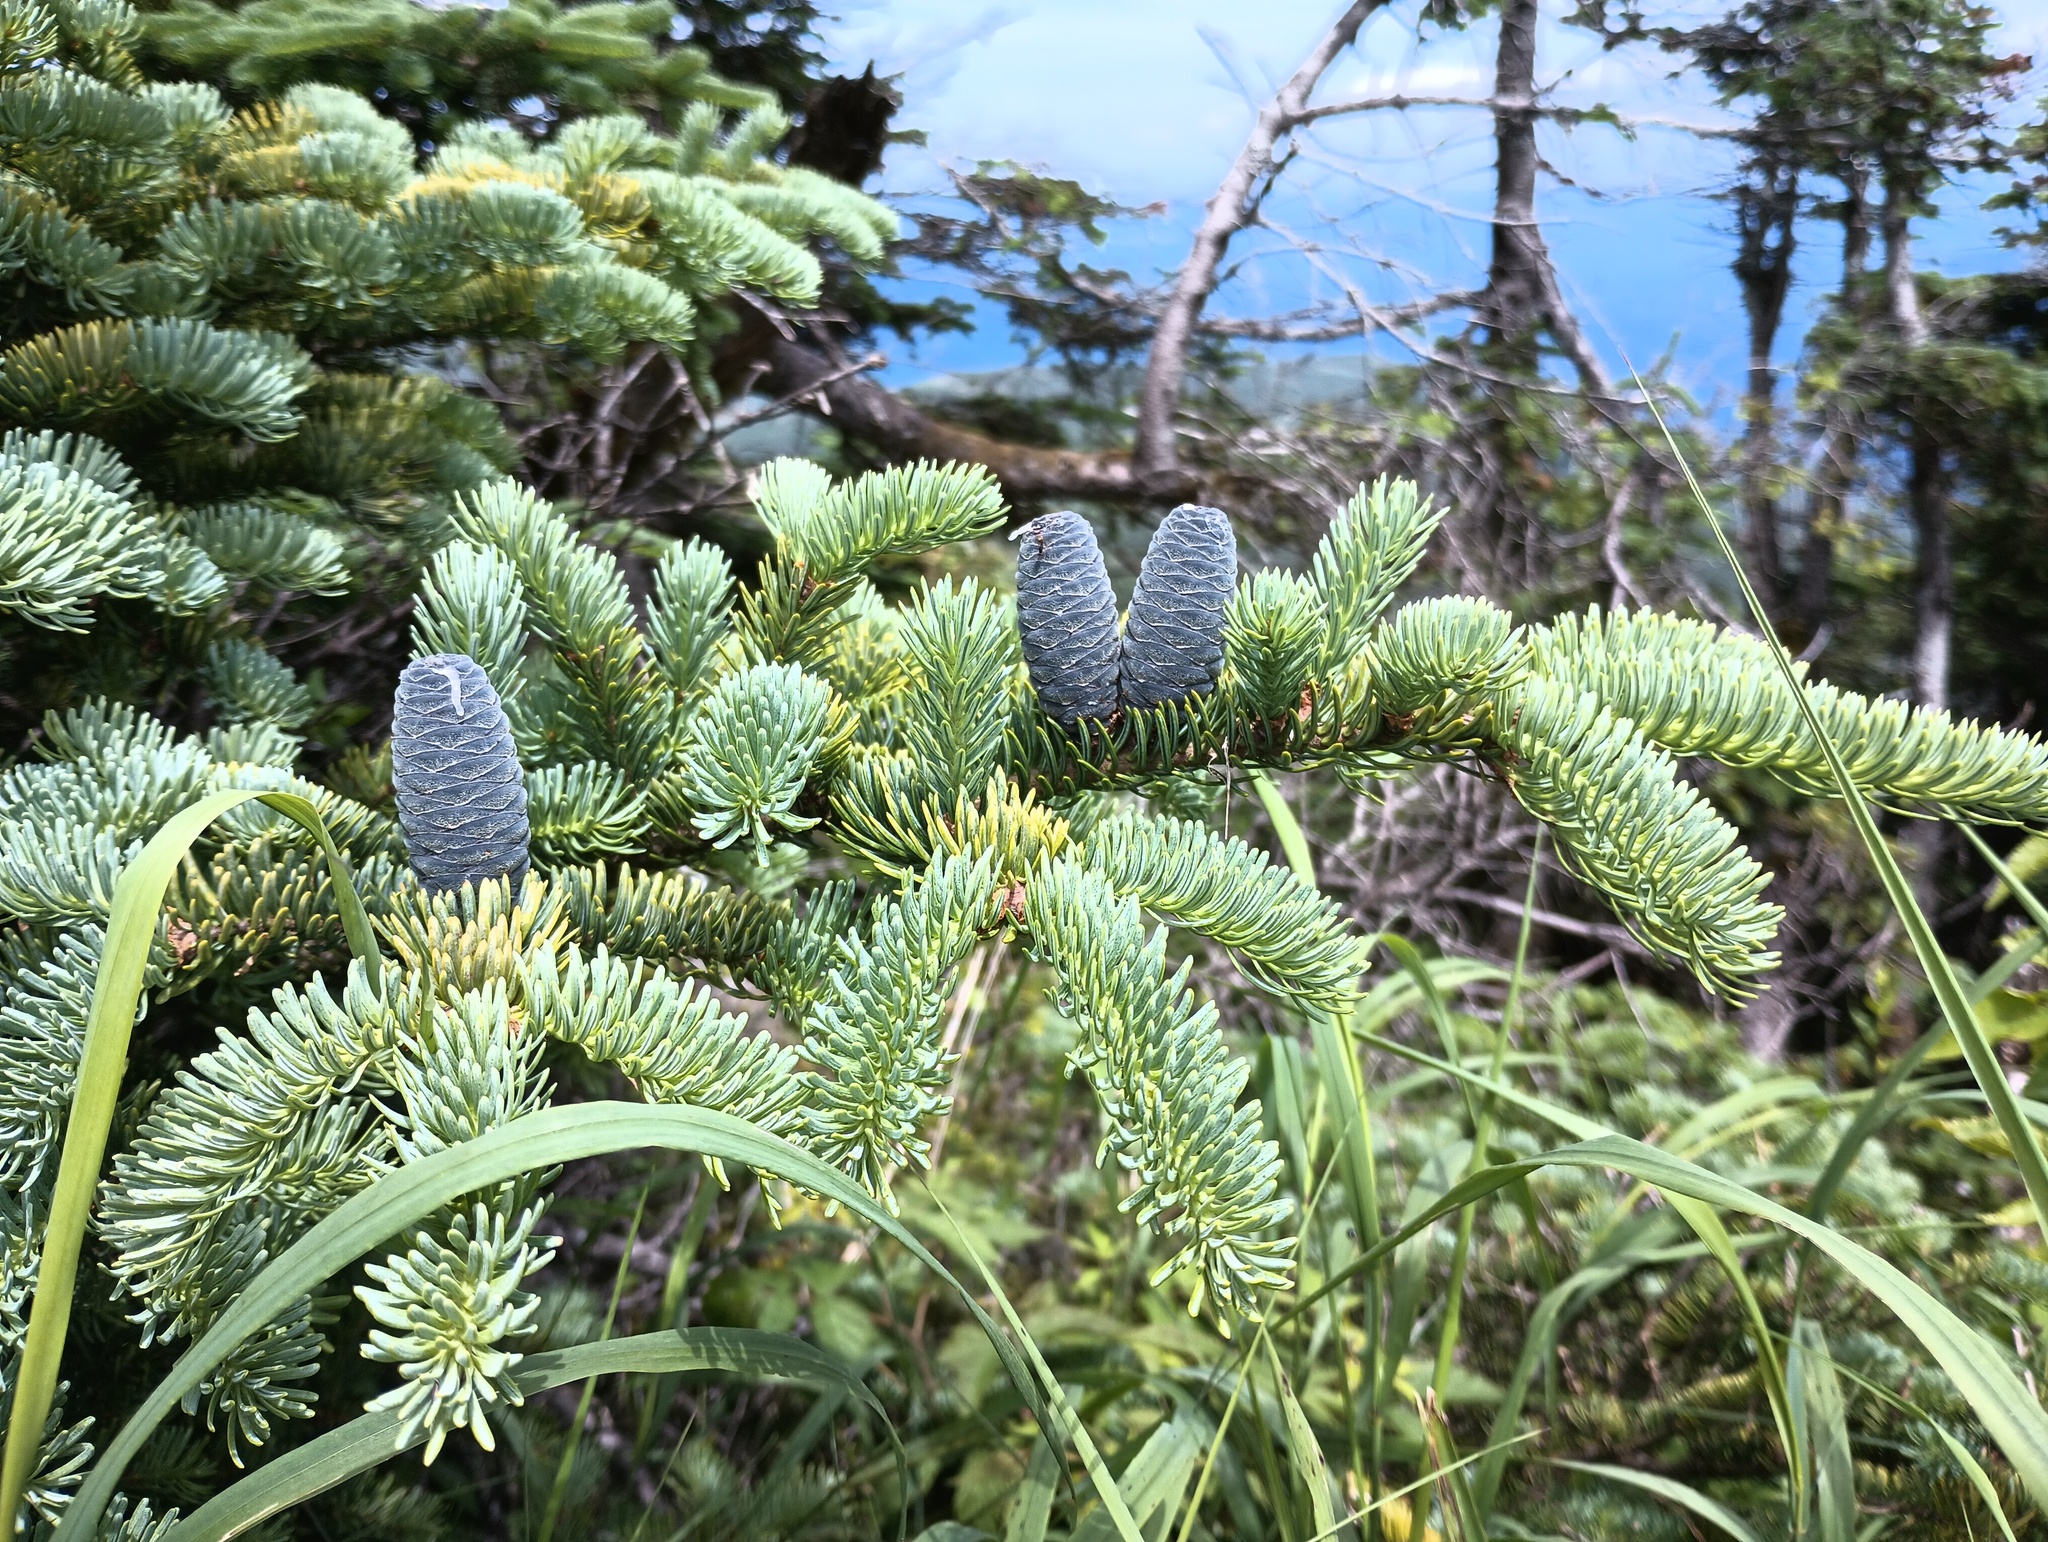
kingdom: Plantae
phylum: Tracheophyta
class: Pinopsida
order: Pinales
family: Pinaceae
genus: Abies
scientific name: Abies balsamea
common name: Balsam fir
